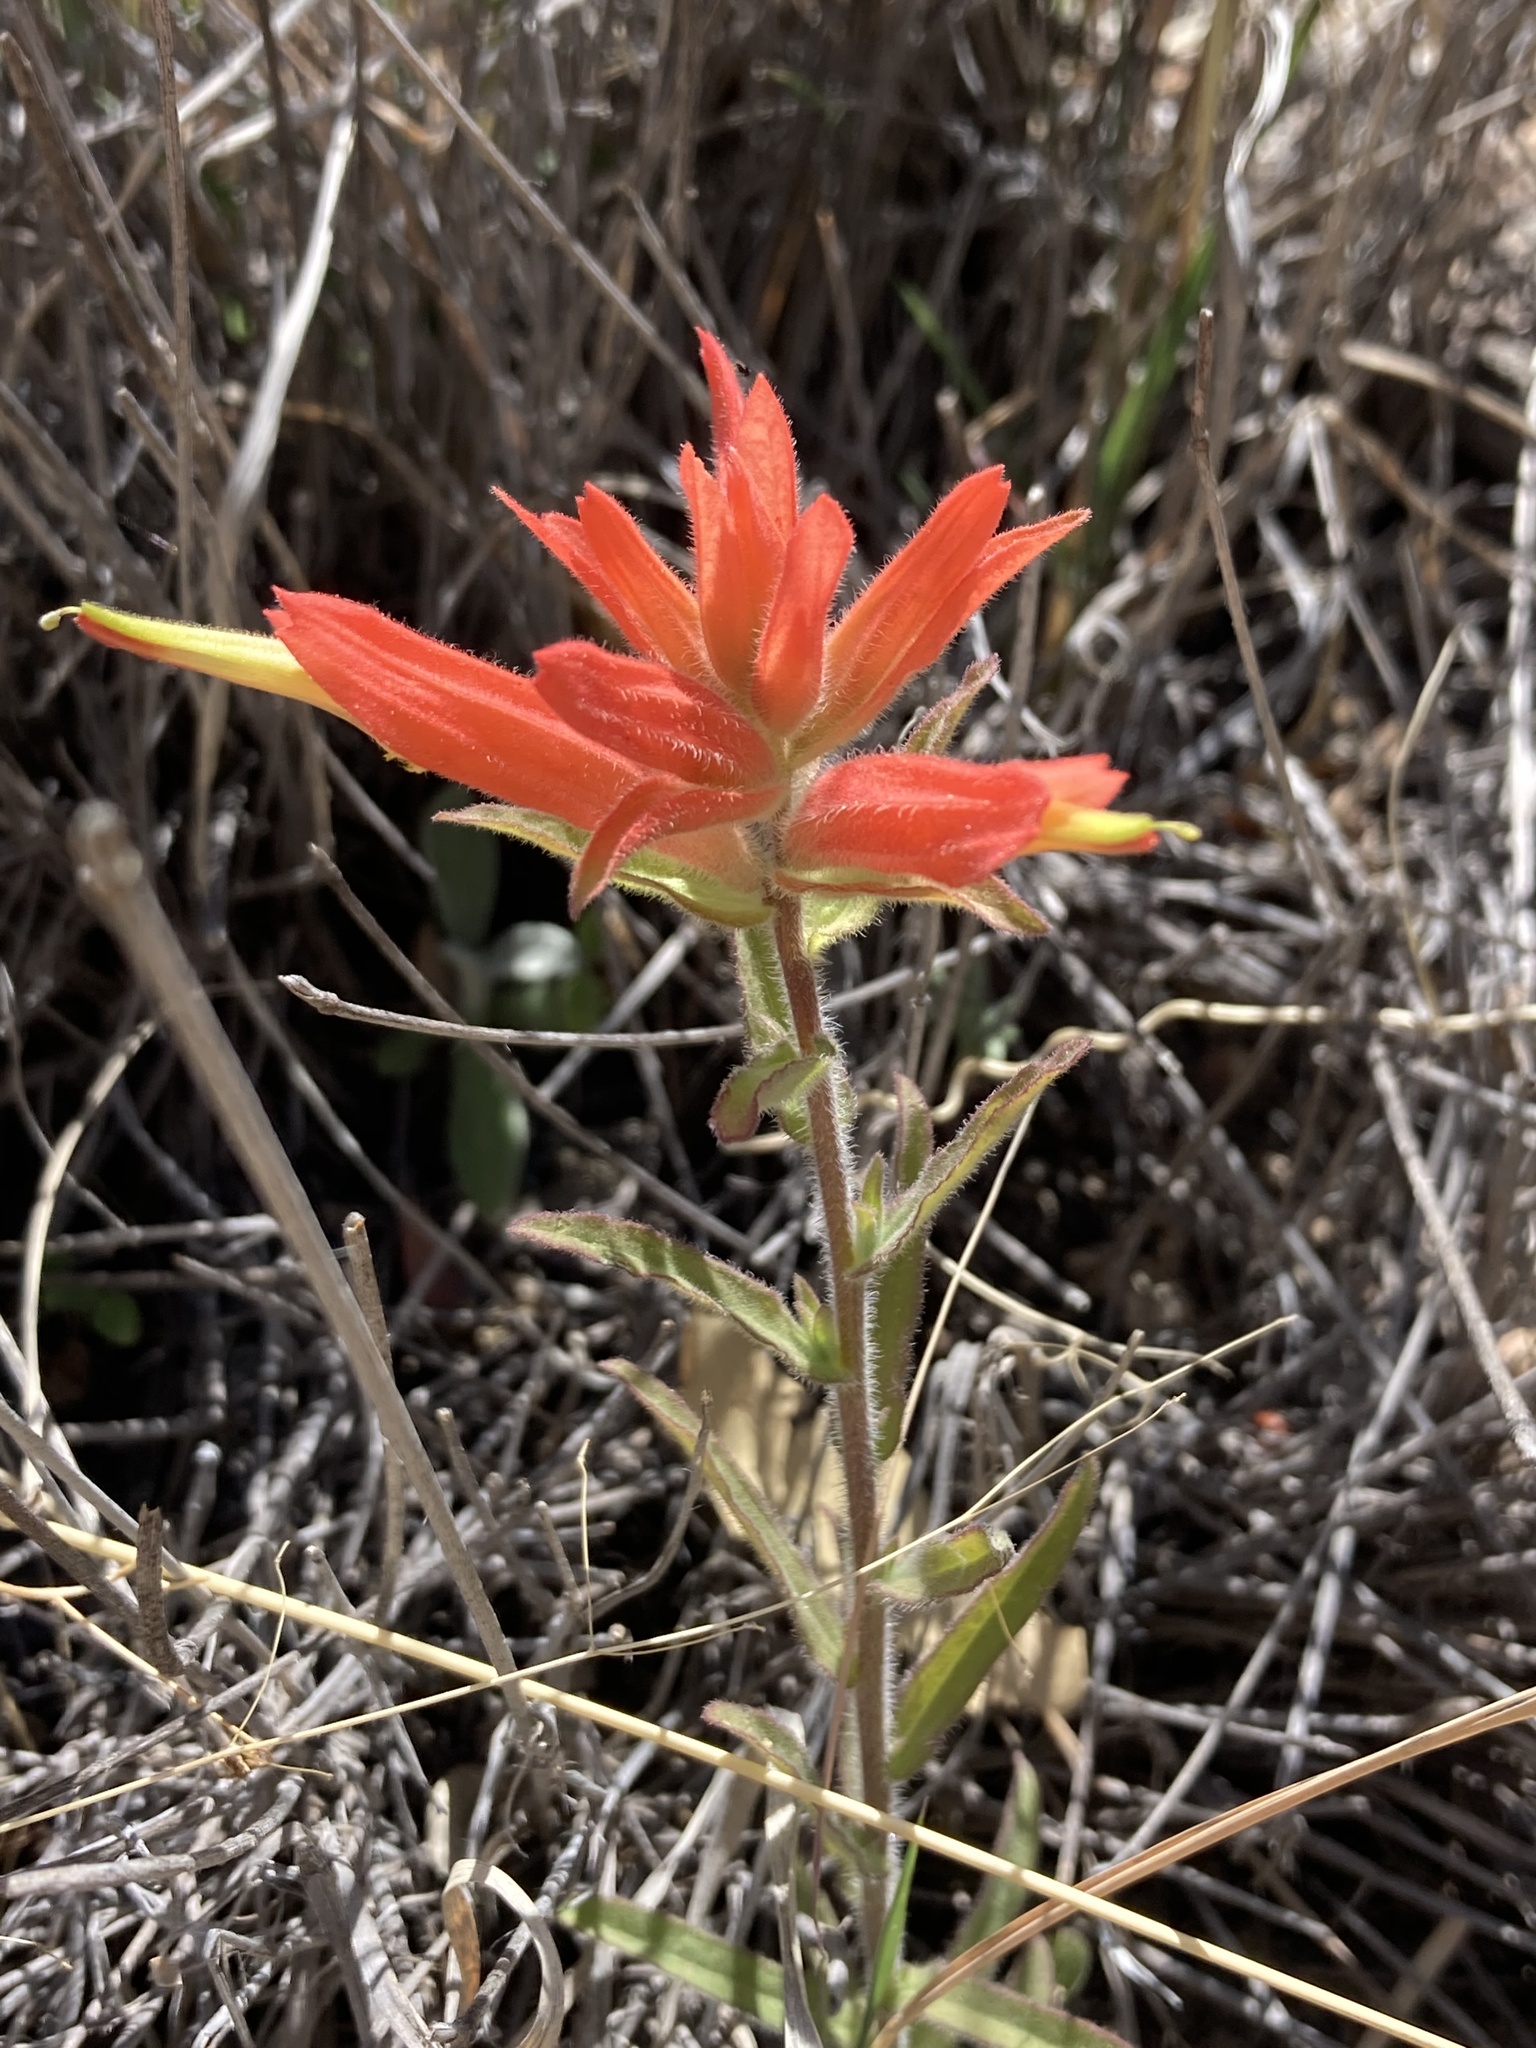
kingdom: Plantae
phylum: Tracheophyta
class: Magnoliopsida
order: Lamiales
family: Orobanchaceae
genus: Castilleja
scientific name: Castilleja tenuiflora
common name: Santa catalina indian paintbrush
